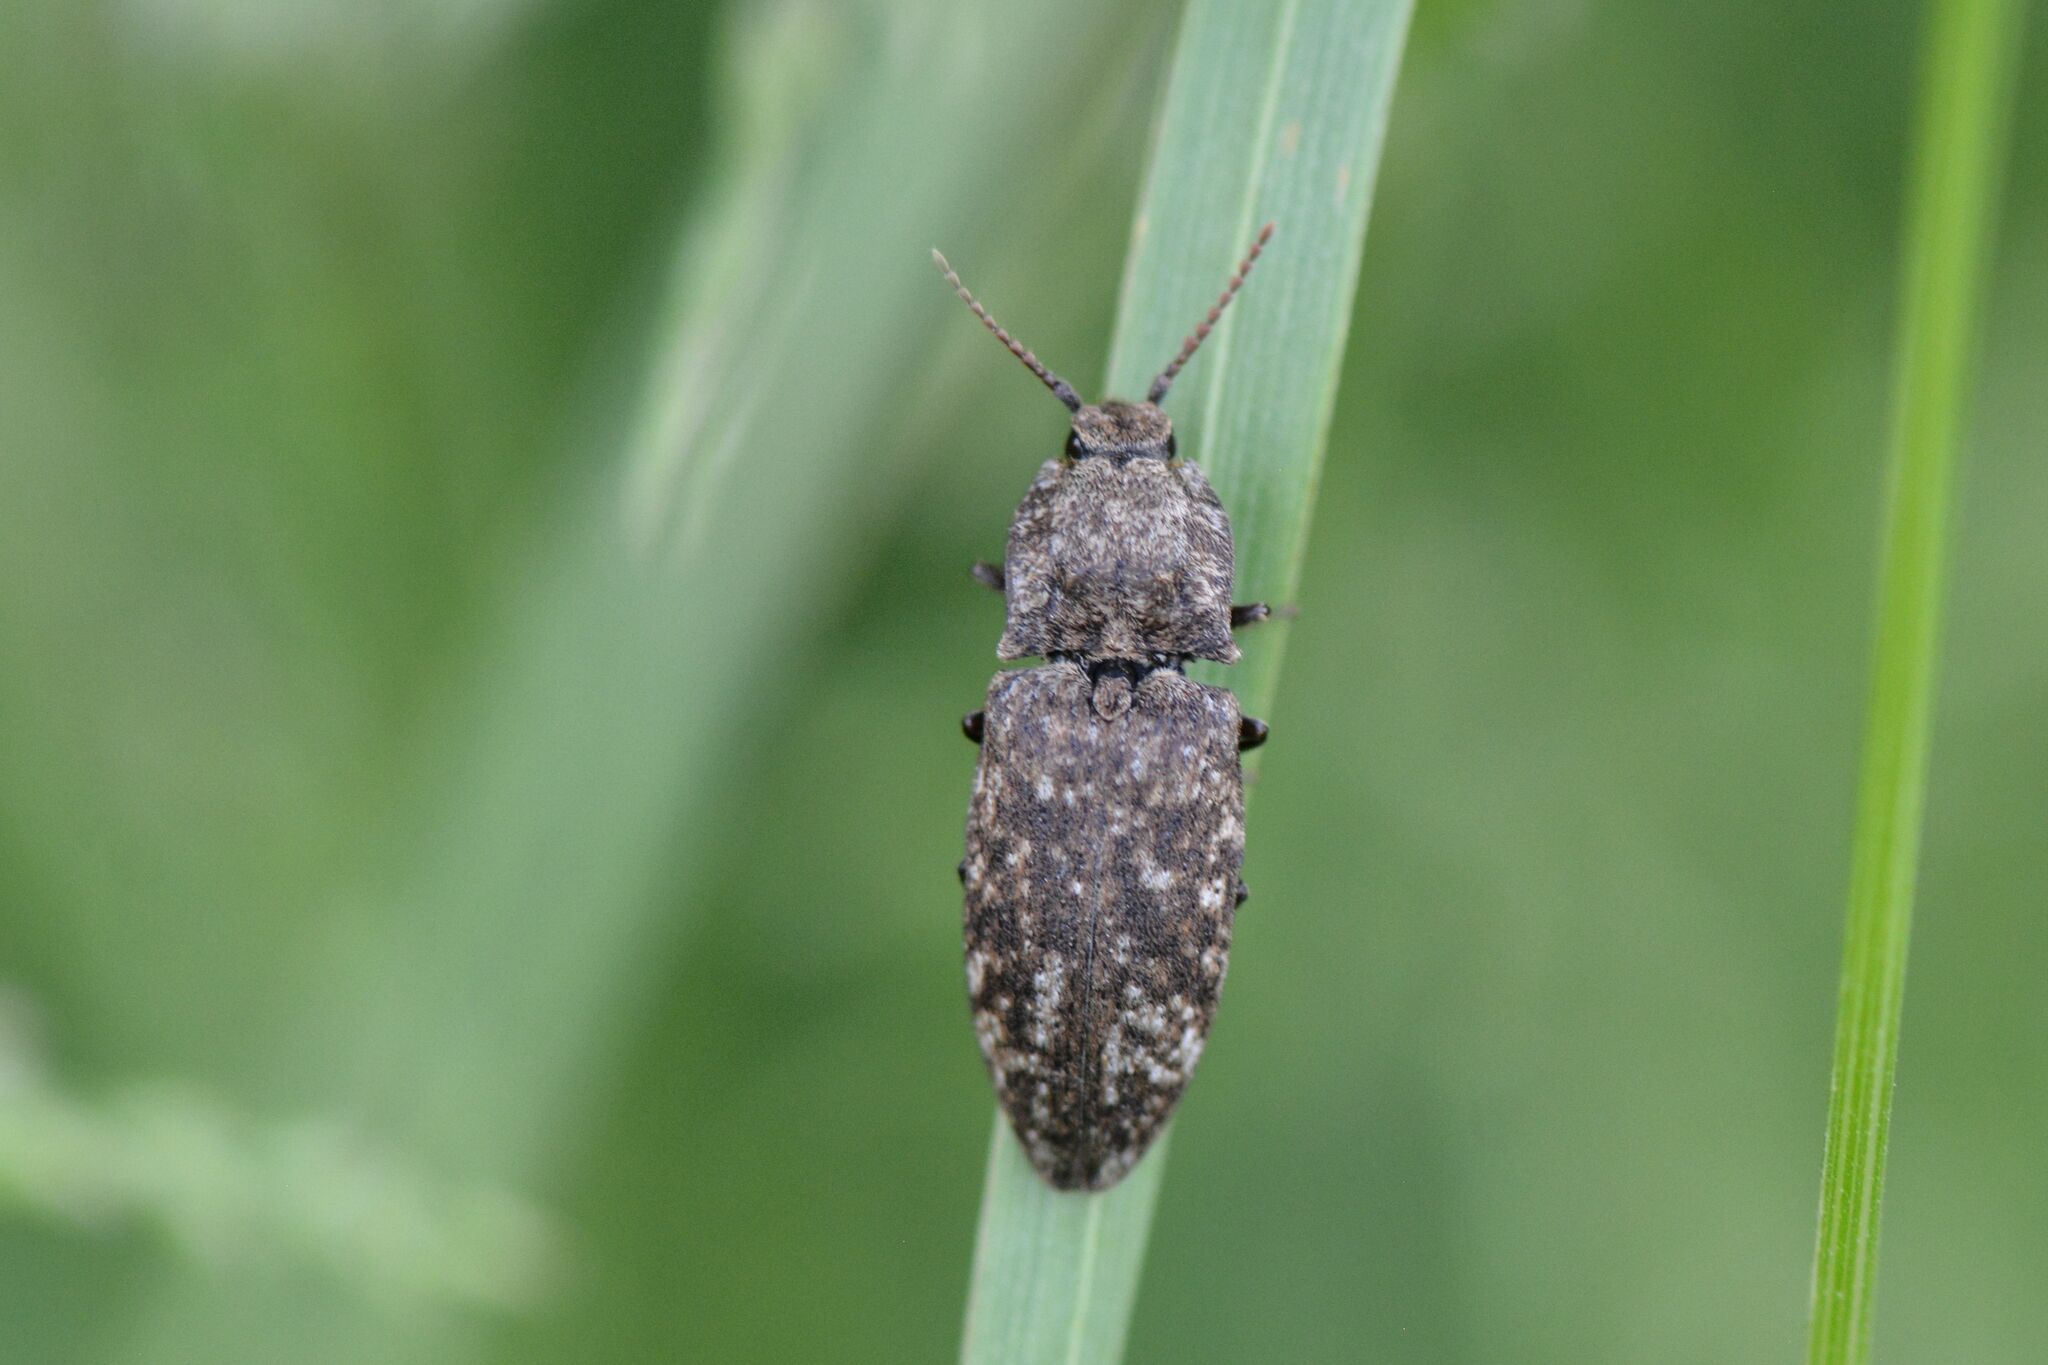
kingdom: Animalia
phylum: Arthropoda
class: Insecta
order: Coleoptera
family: Elateridae
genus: Agrypnus
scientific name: Agrypnus murinus
